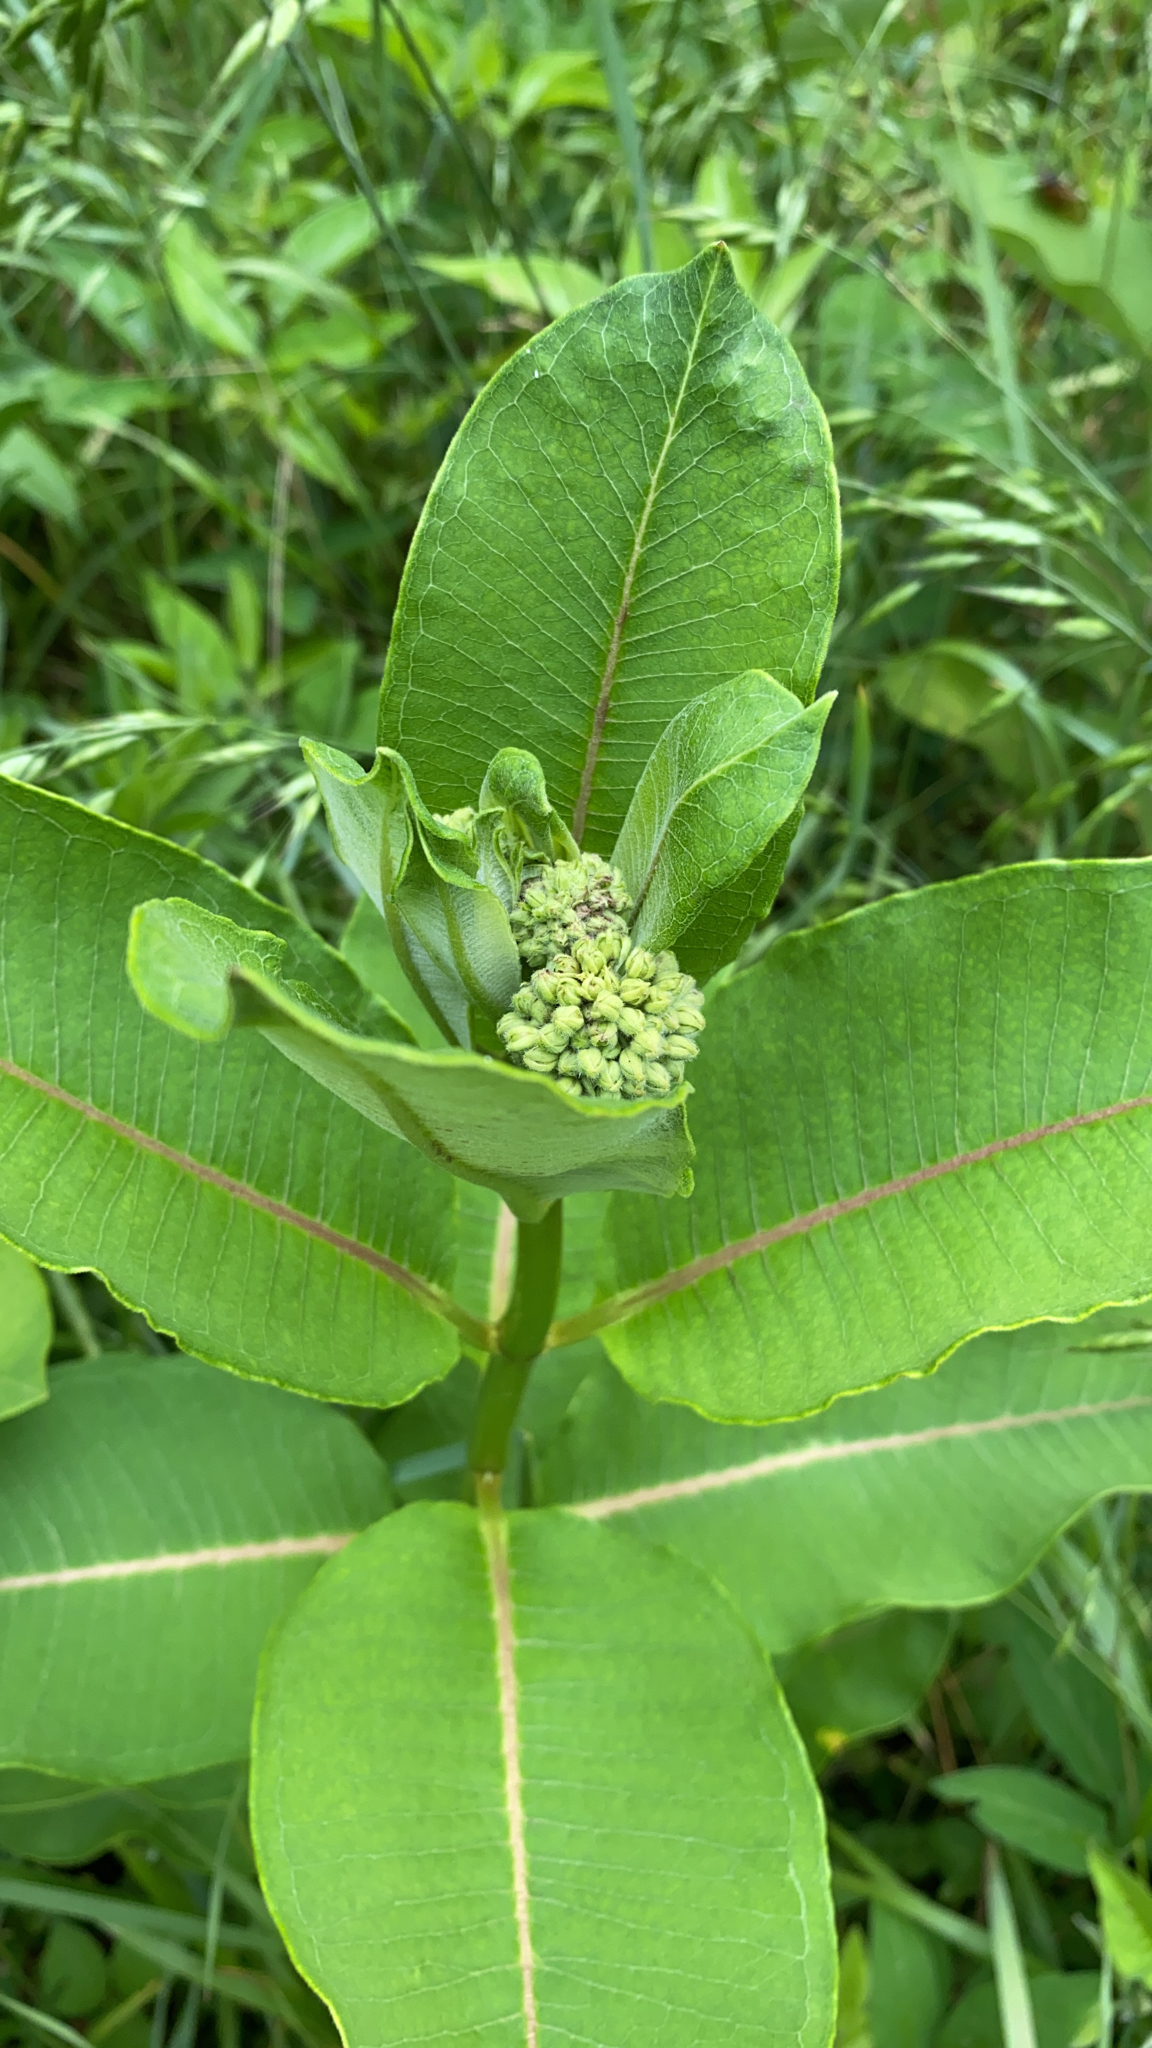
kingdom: Plantae
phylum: Tracheophyta
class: Magnoliopsida
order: Gentianales
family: Apocynaceae
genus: Asclepias
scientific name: Asclepias syriaca
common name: Common milkweed
